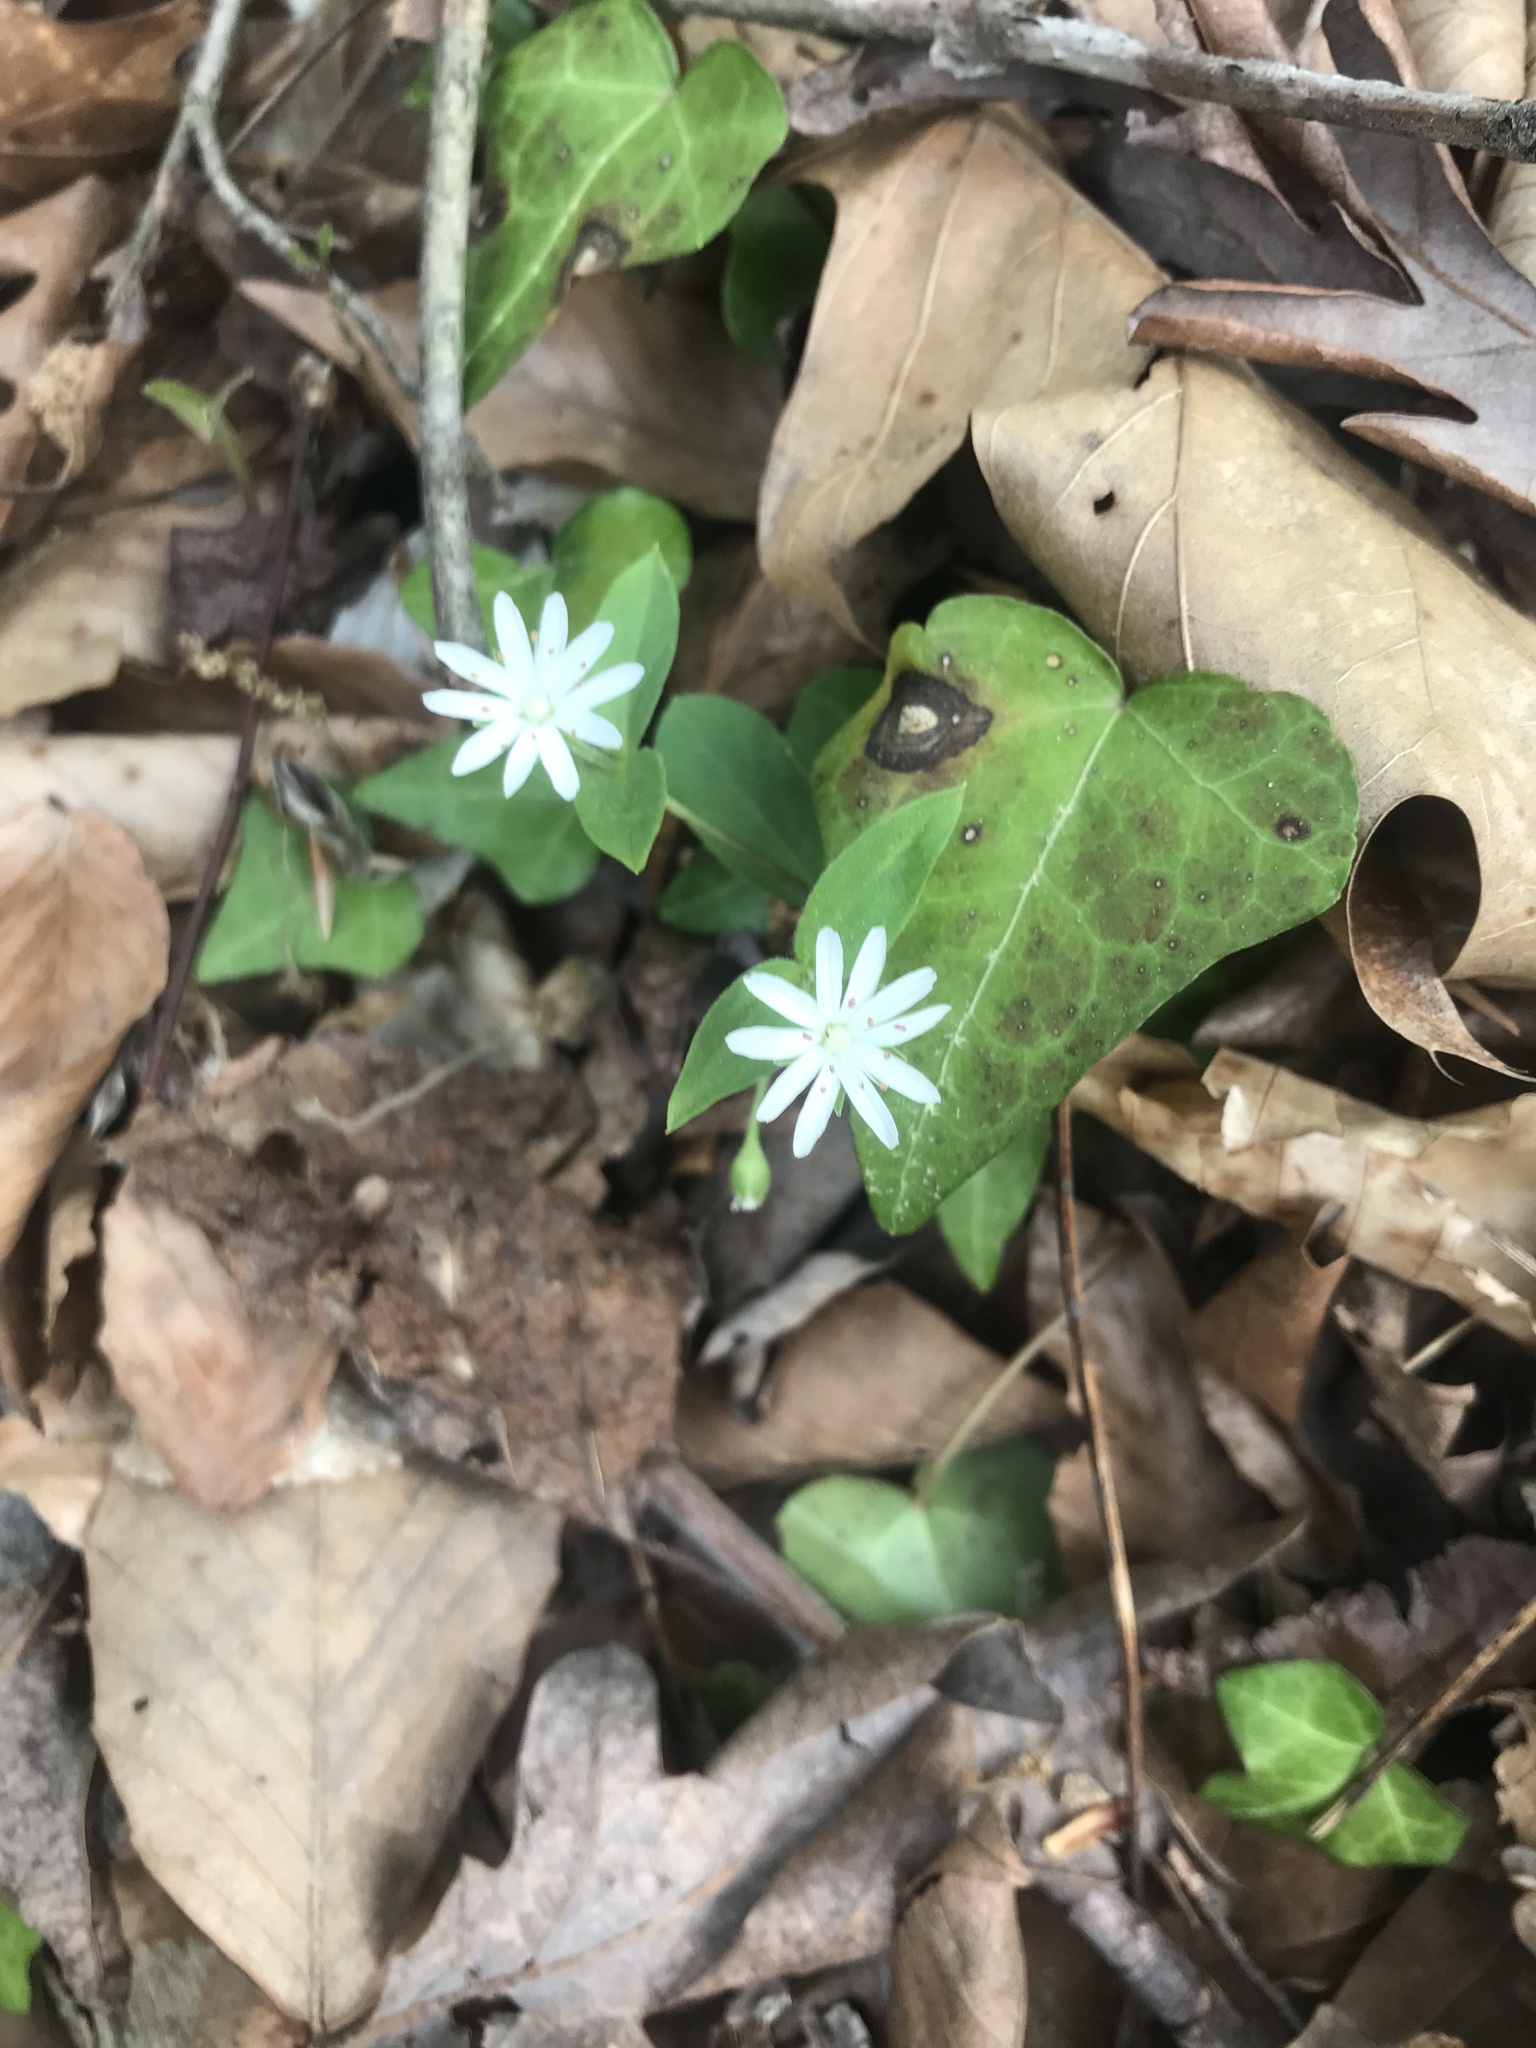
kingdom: Plantae
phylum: Tracheophyta
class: Magnoliopsida
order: Caryophyllales
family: Caryophyllaceae
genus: Stellaria
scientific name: Stellaria pubera
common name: Star chickweed
